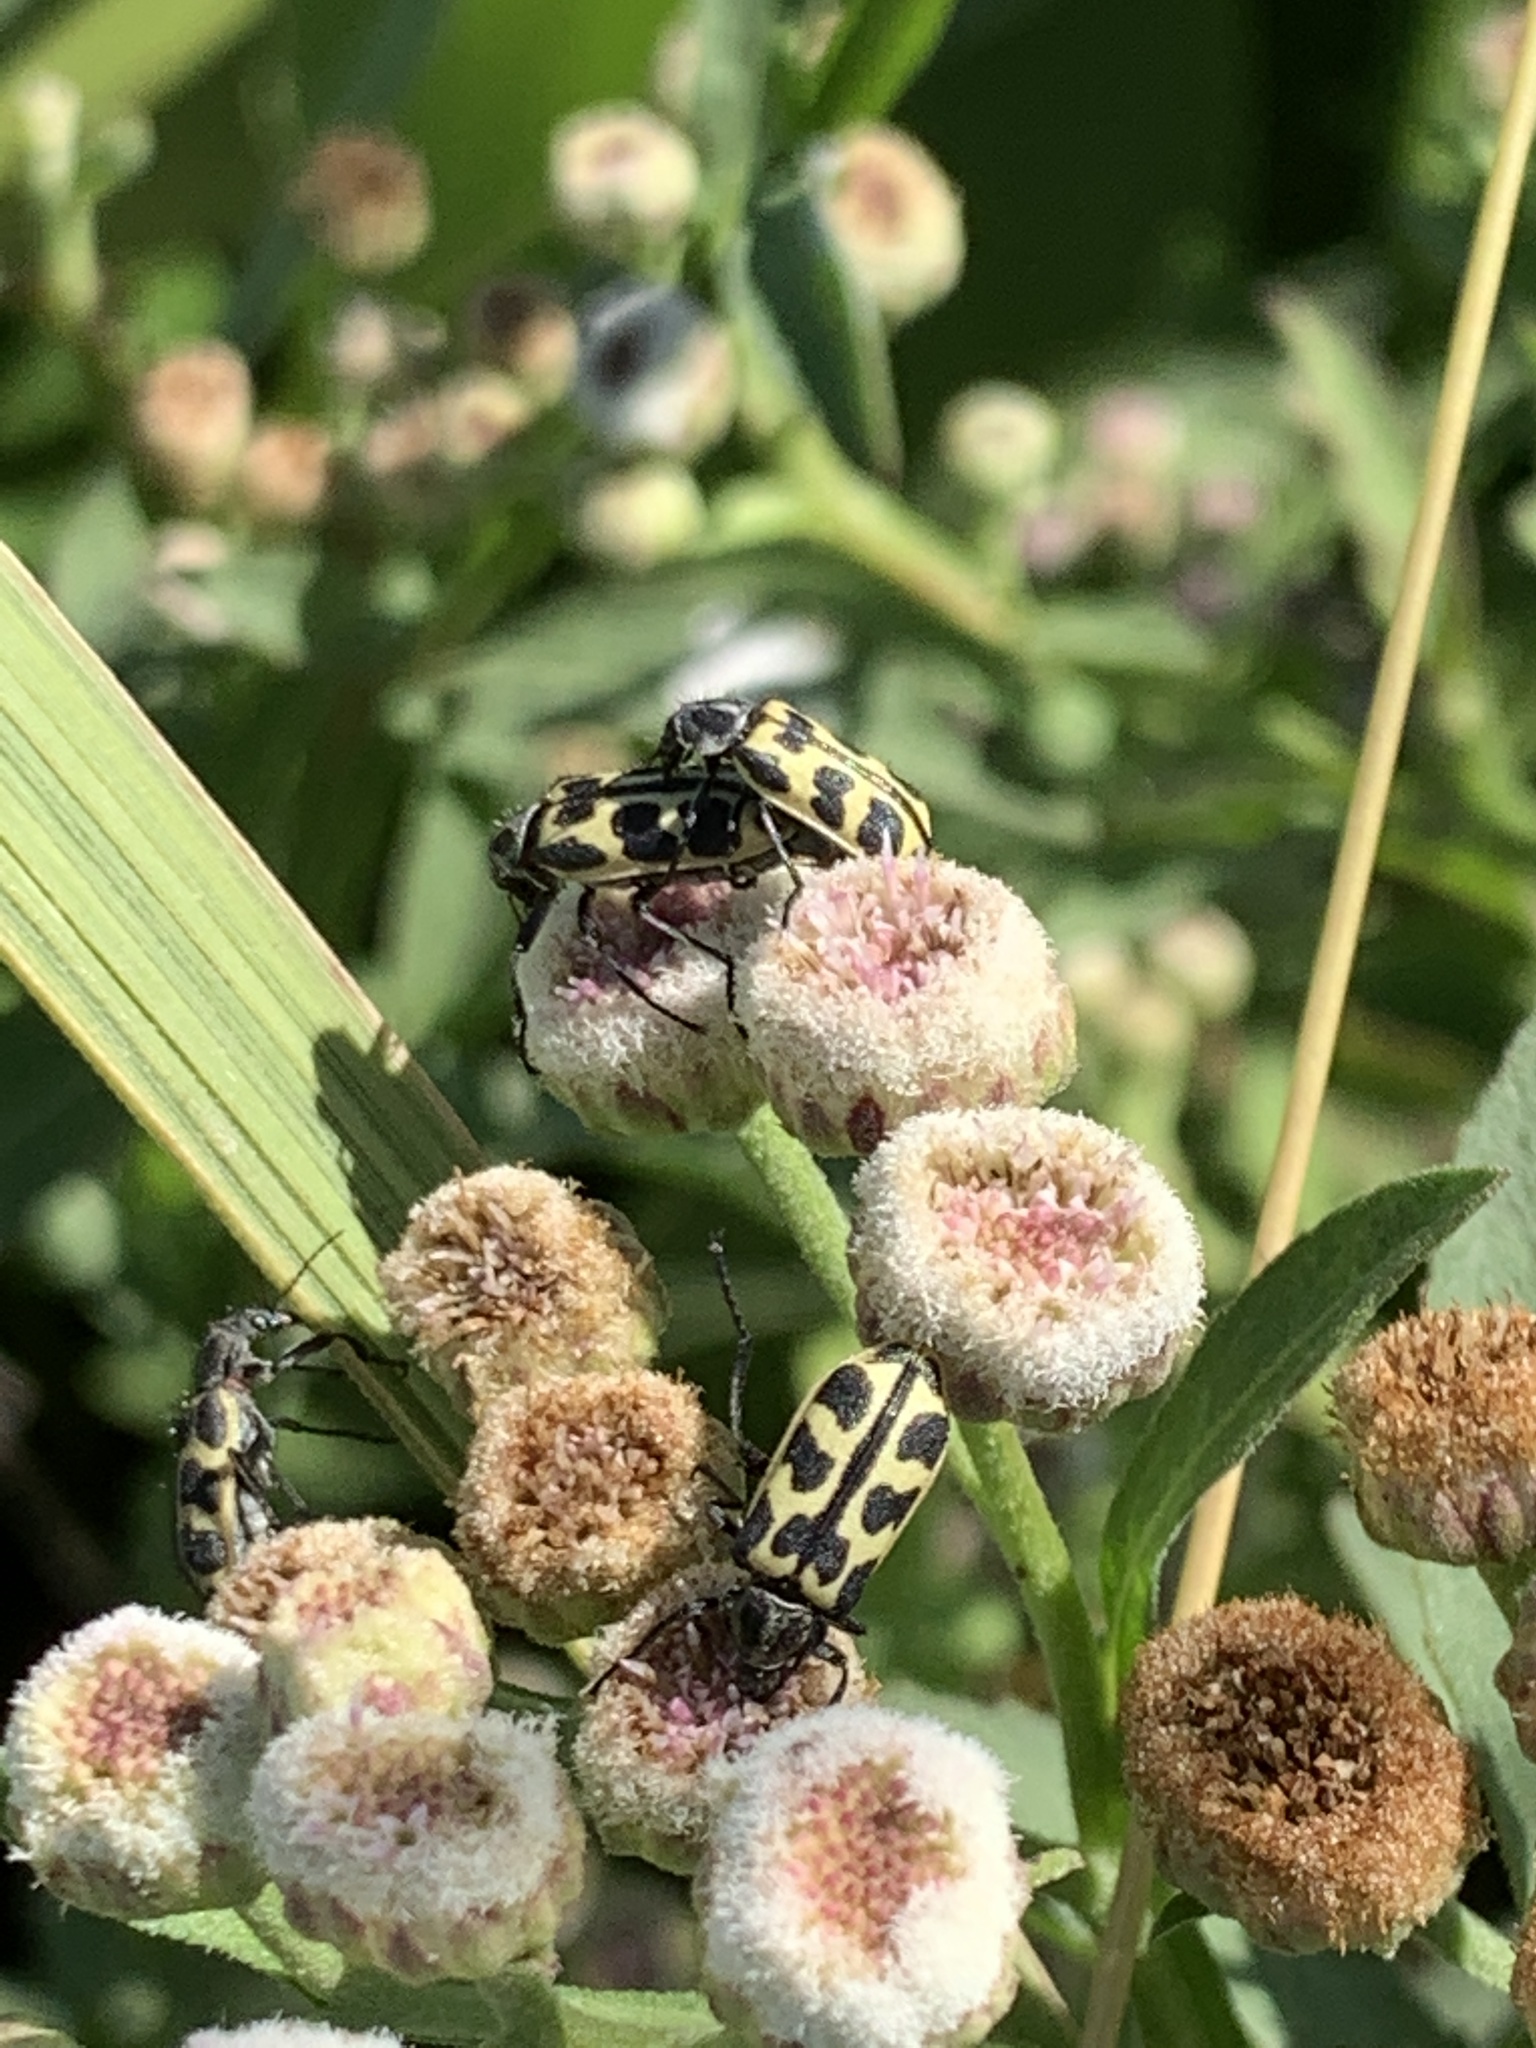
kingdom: Animalia
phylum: Arthropoda
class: Insecta
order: Coleoptera
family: Melyridae
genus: Astylus
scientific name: Astylus atromaculatus
